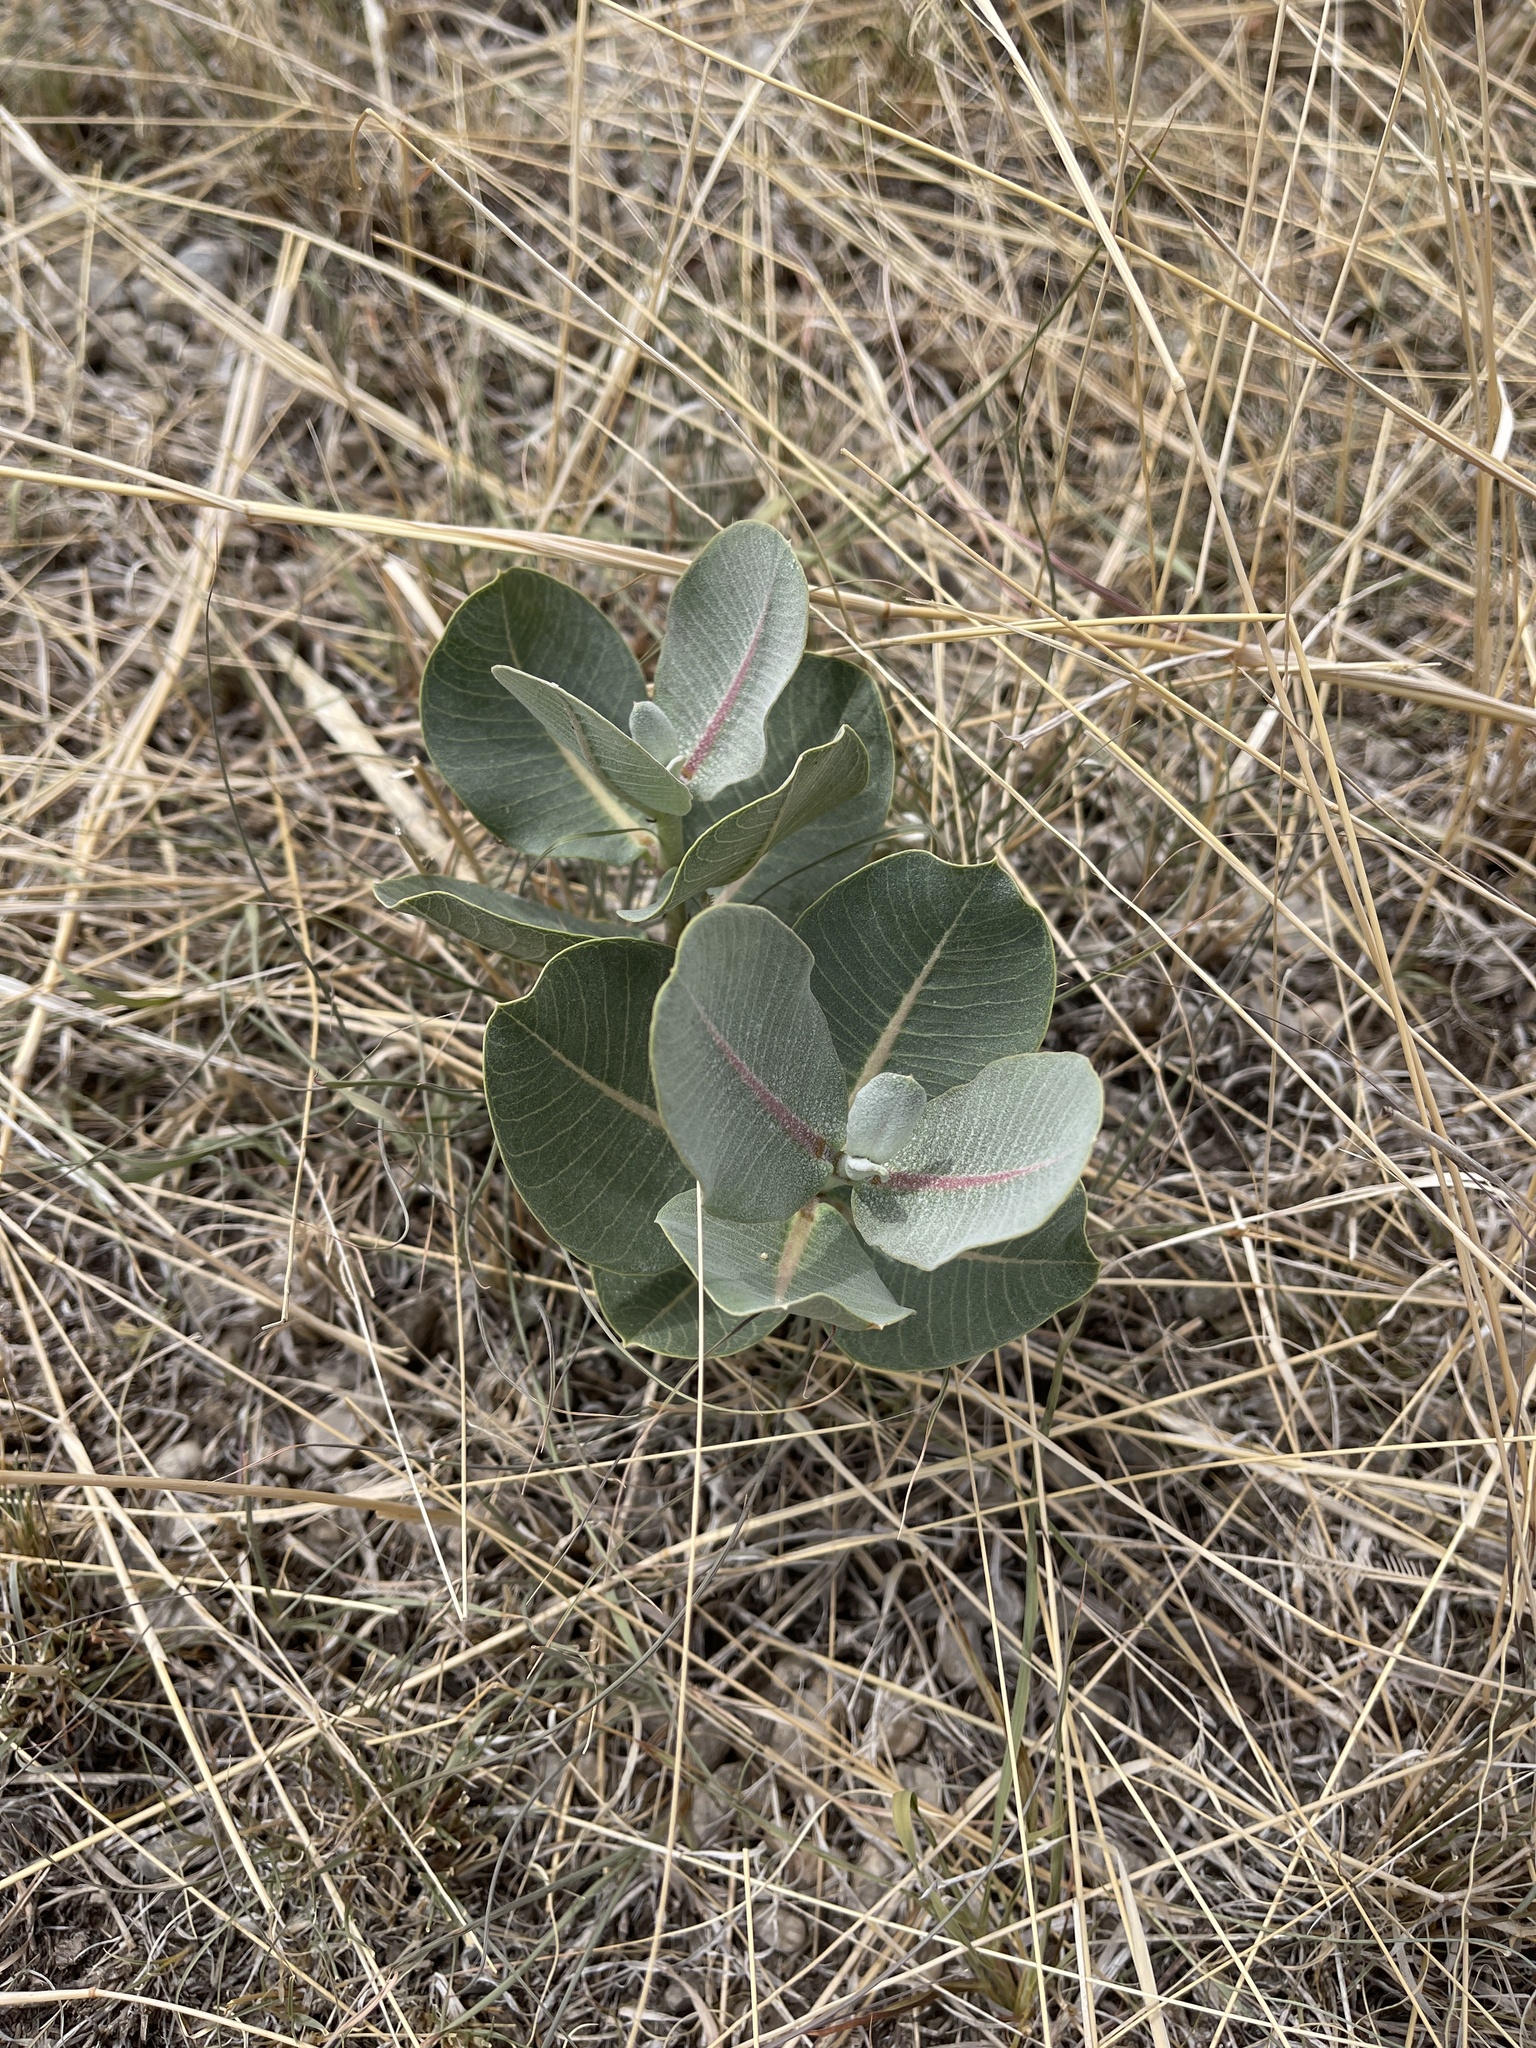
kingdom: Plantae
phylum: Tracheophyta
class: Magnoliopsida
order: Gentianales
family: Apocynaceae
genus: Asclepias
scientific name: Asclepias latifolia
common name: Broadleaf milkweed
